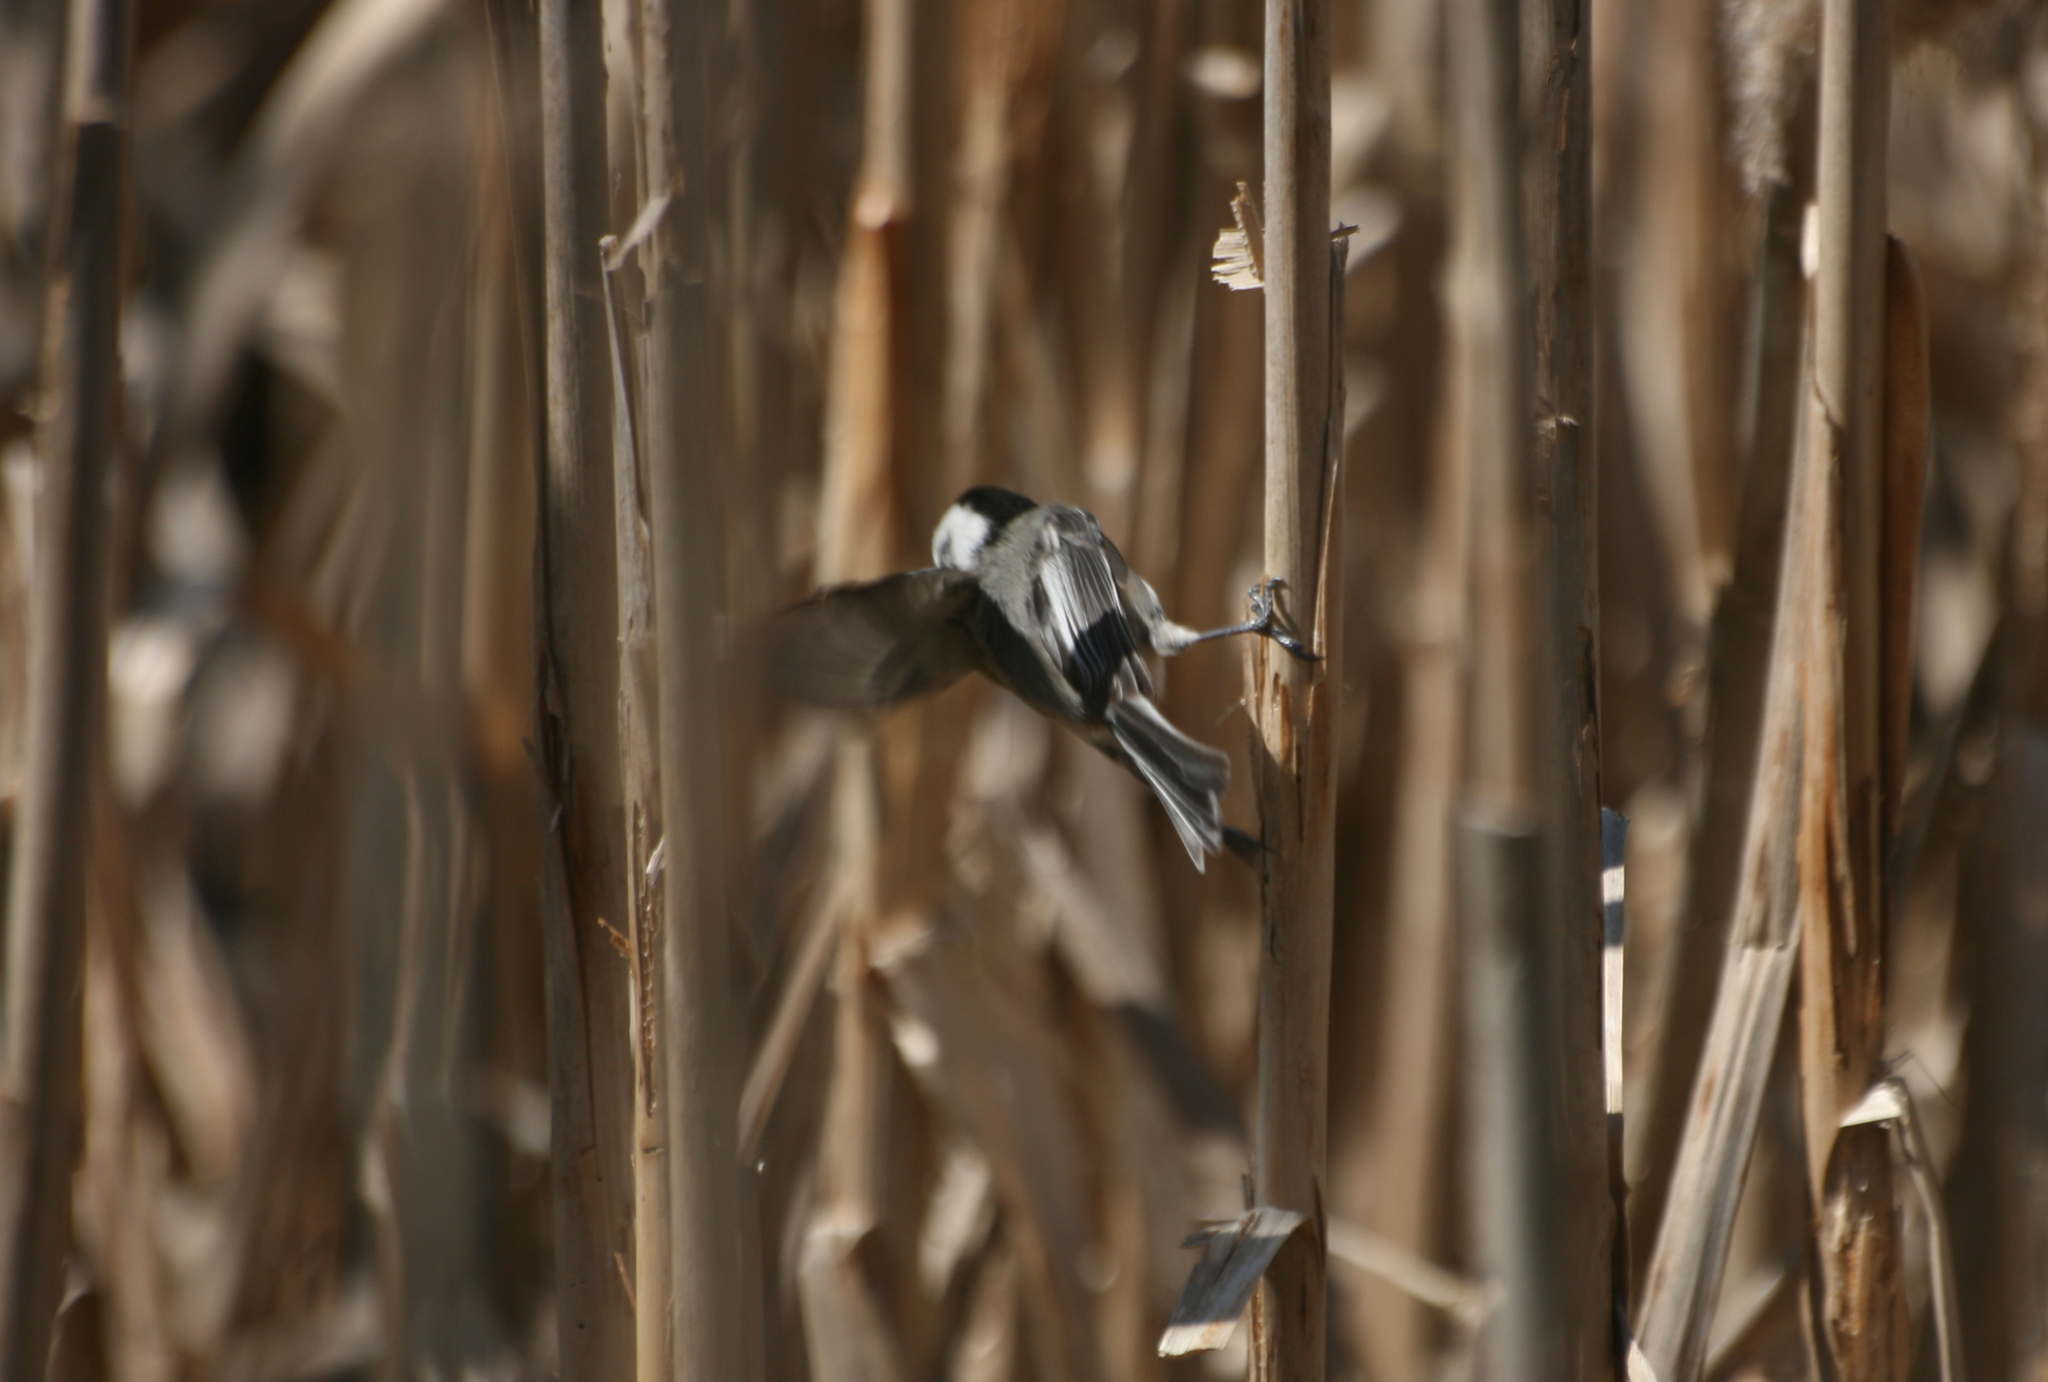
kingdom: Animalia
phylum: Chordata
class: Aves
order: Passeriformes
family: Paridae
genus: Poecile
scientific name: Poecile atricapillus
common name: Black-capped chickadee
